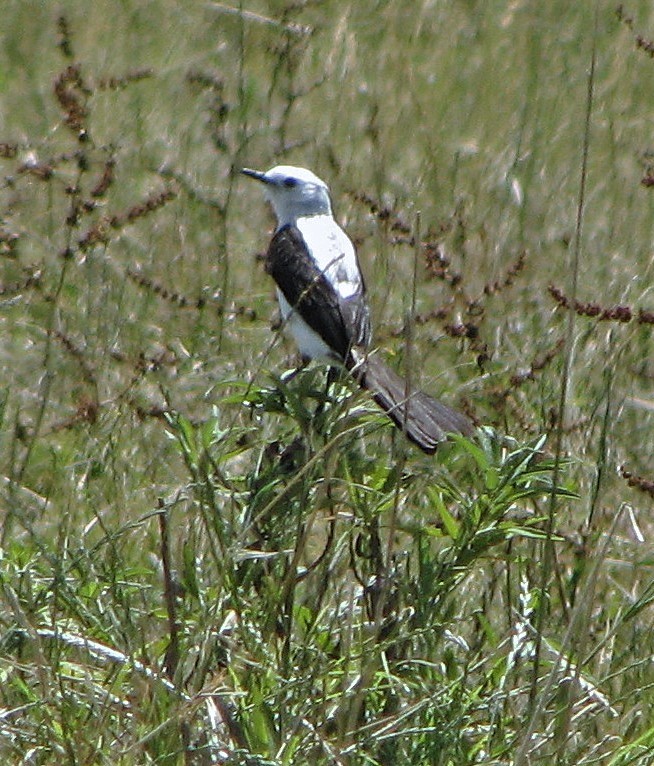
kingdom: Animalia
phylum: Chordata
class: Aves
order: Passeriformes
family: Tyrannidae
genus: Heteroxolmis
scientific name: Heteroxolmis dominicana
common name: Black-and-white monjita
